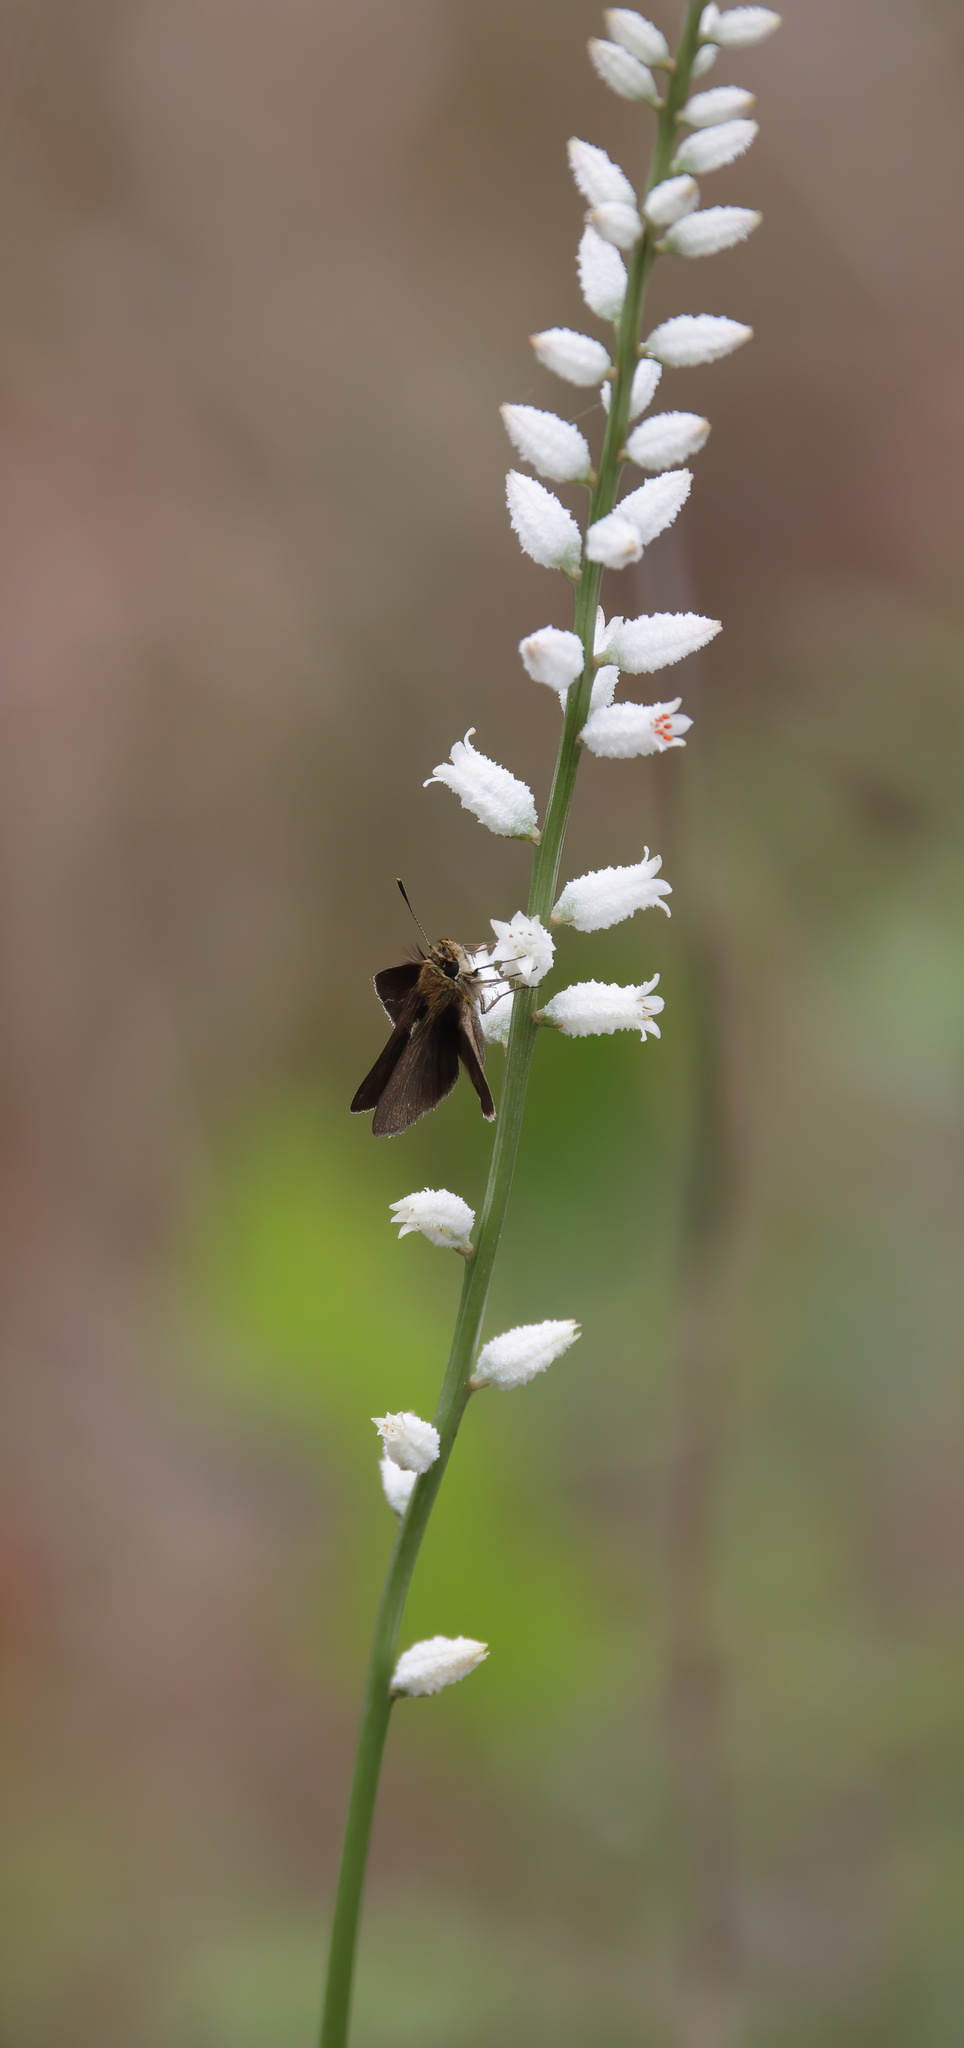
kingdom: Plantae
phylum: Tracheophyta
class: Liliopsida
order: Dioscoreales
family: Nartheciaceae
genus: Aletris
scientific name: Aletris farinosa
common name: Colicroot
